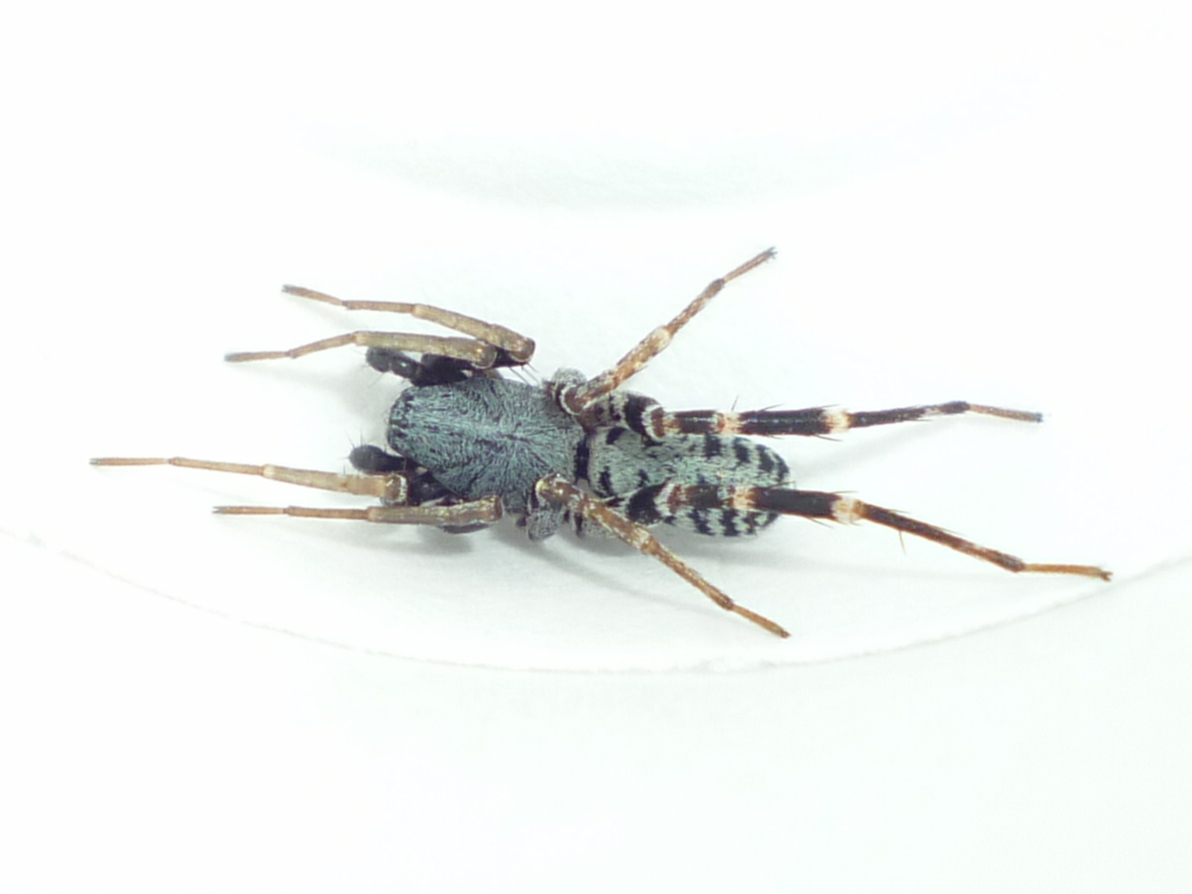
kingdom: Animalia
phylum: Arthropoda
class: Arachnida
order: Araneae
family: Corinnidae
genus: Castianeira
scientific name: Castianeira variata
